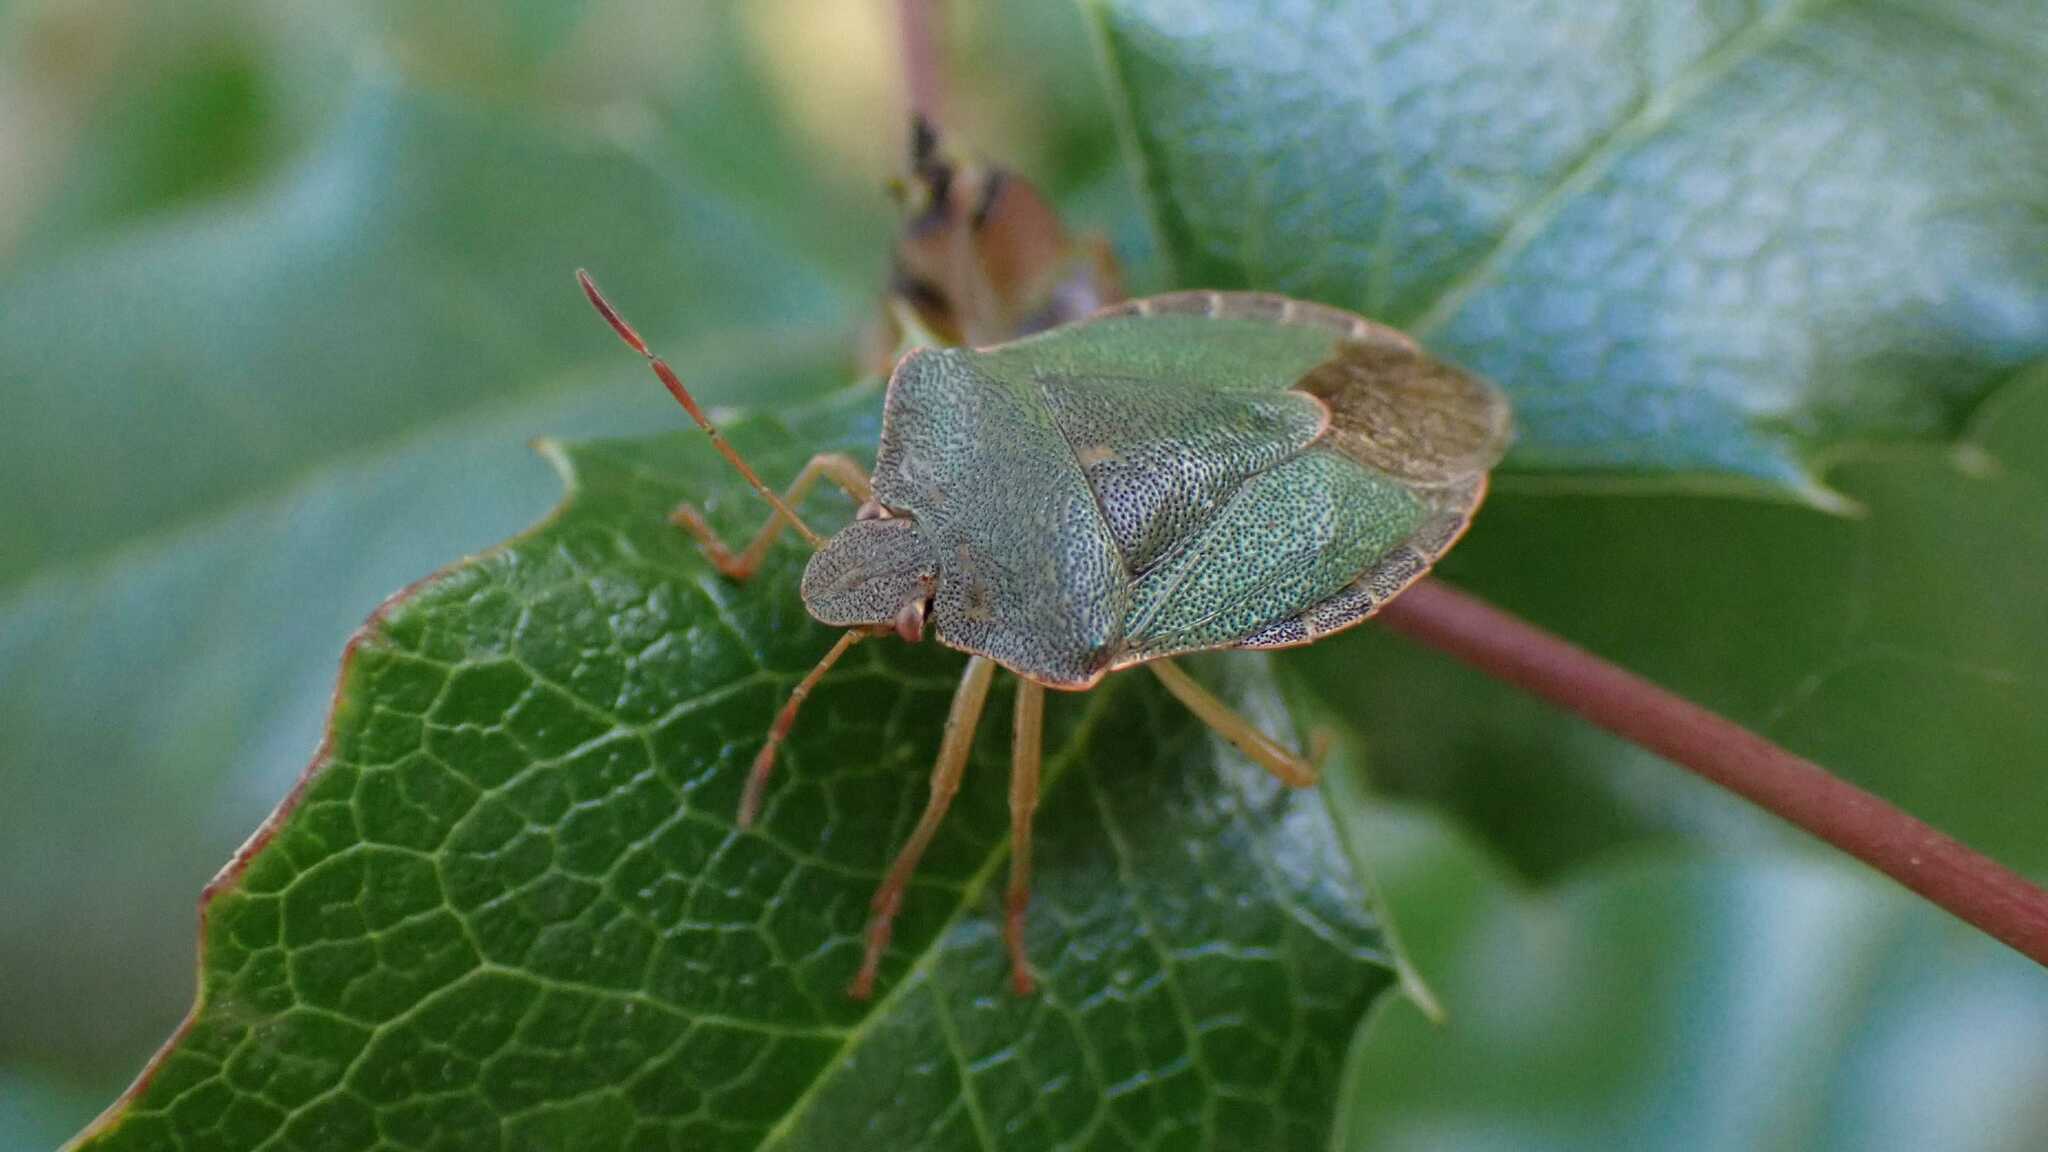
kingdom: Animalia
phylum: Arthropoda
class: Insecta
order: Hemiptera
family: Pentatomidae
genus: Palomena
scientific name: Palomena prasina
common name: Green shieldbug
